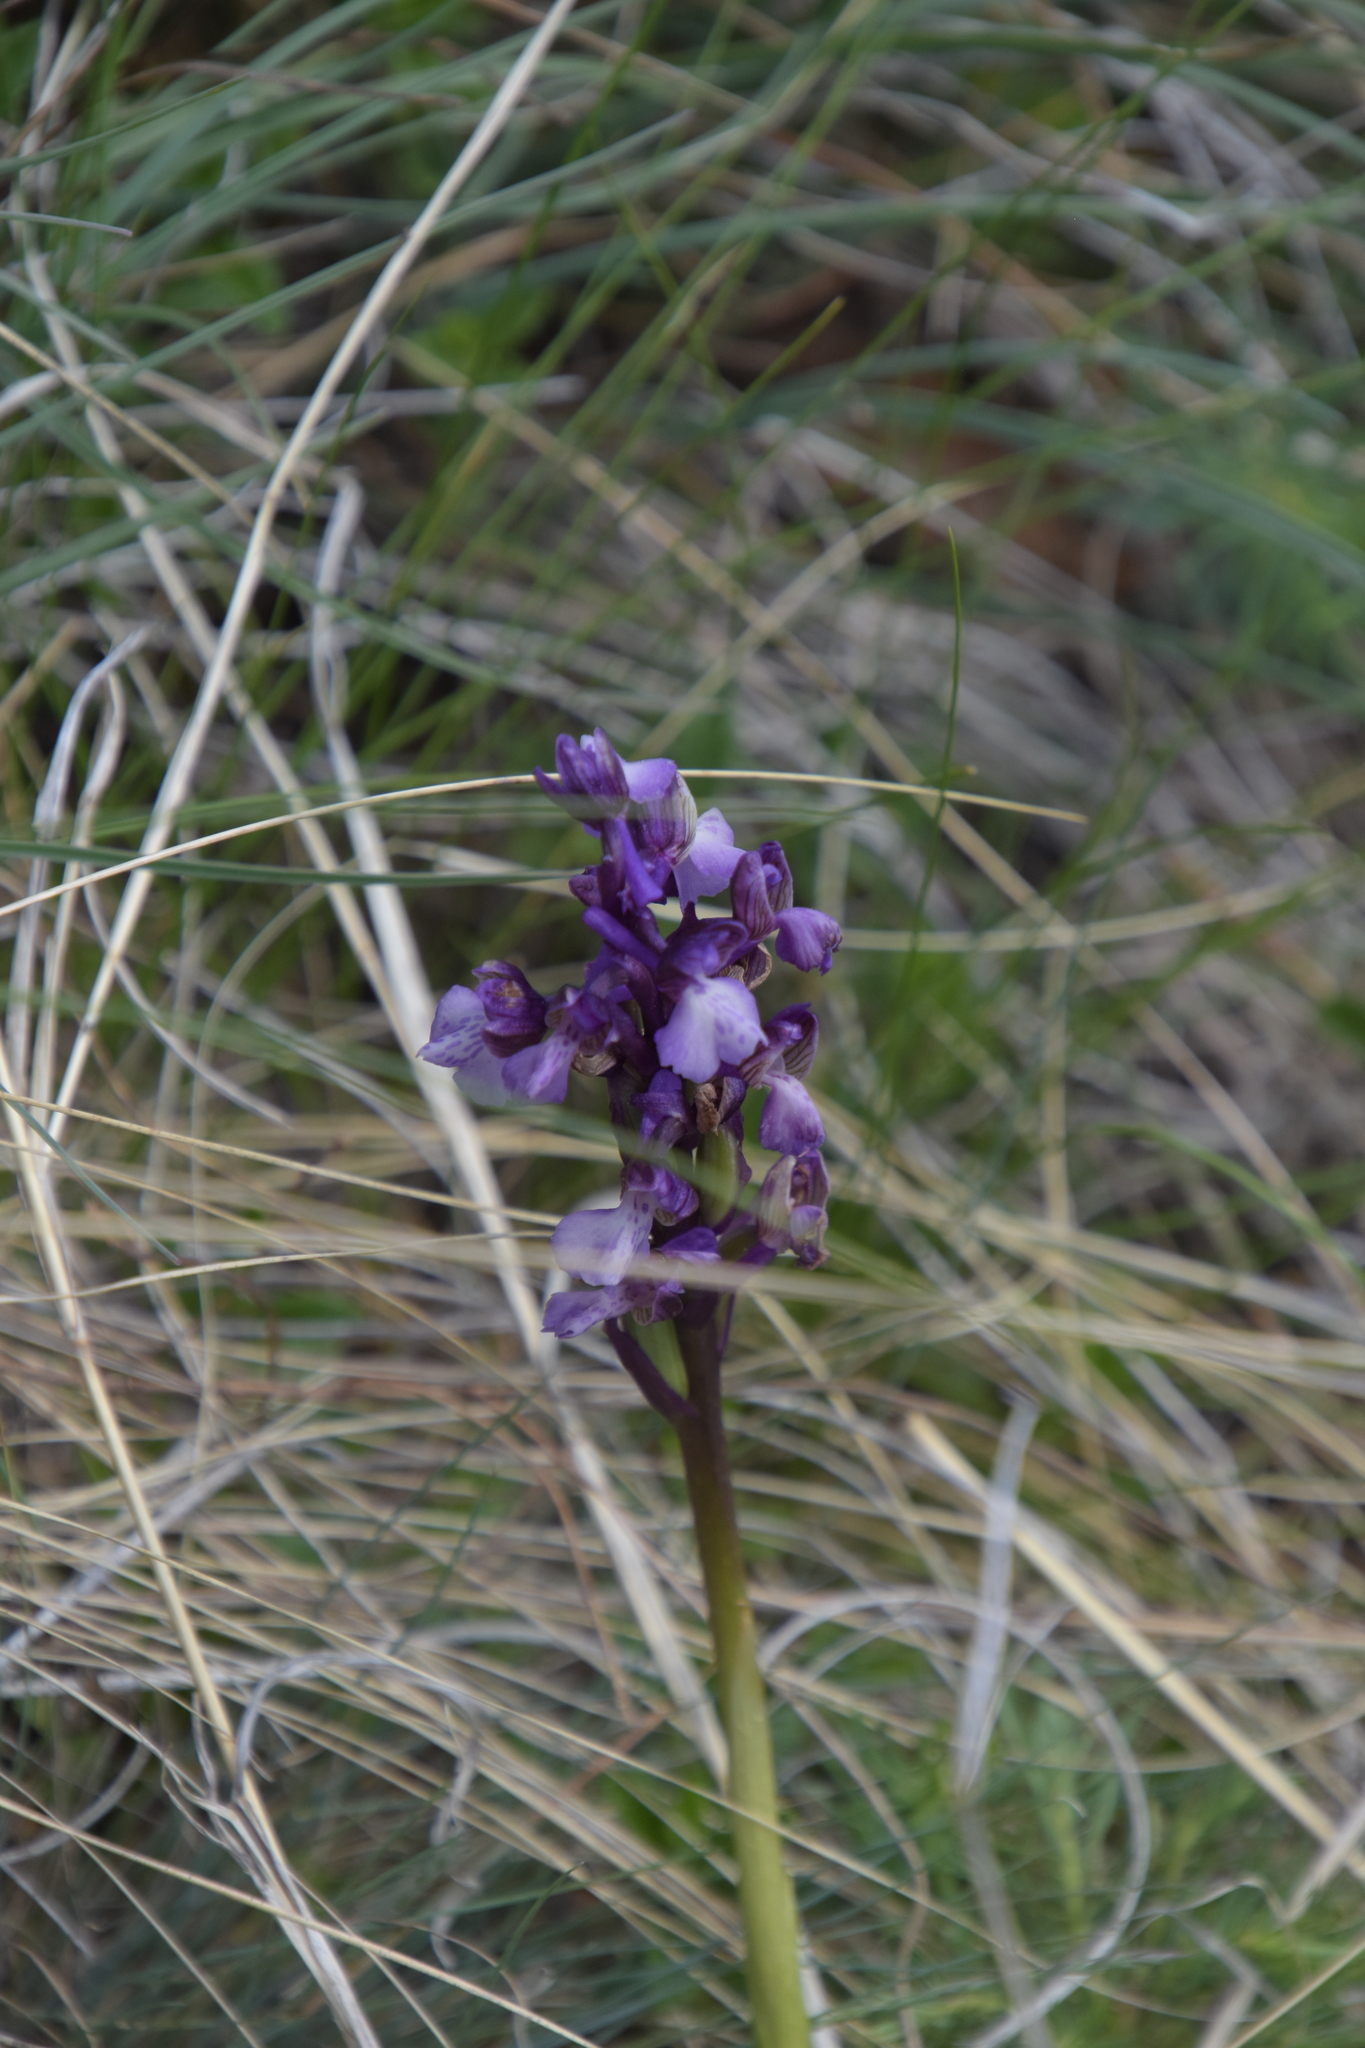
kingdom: Plantae
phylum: Tracheophyta
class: Liliopsida
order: Asparagales
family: Orchidaceae
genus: Anacamptis
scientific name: Anacamptis morio
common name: Green-winged orchid
